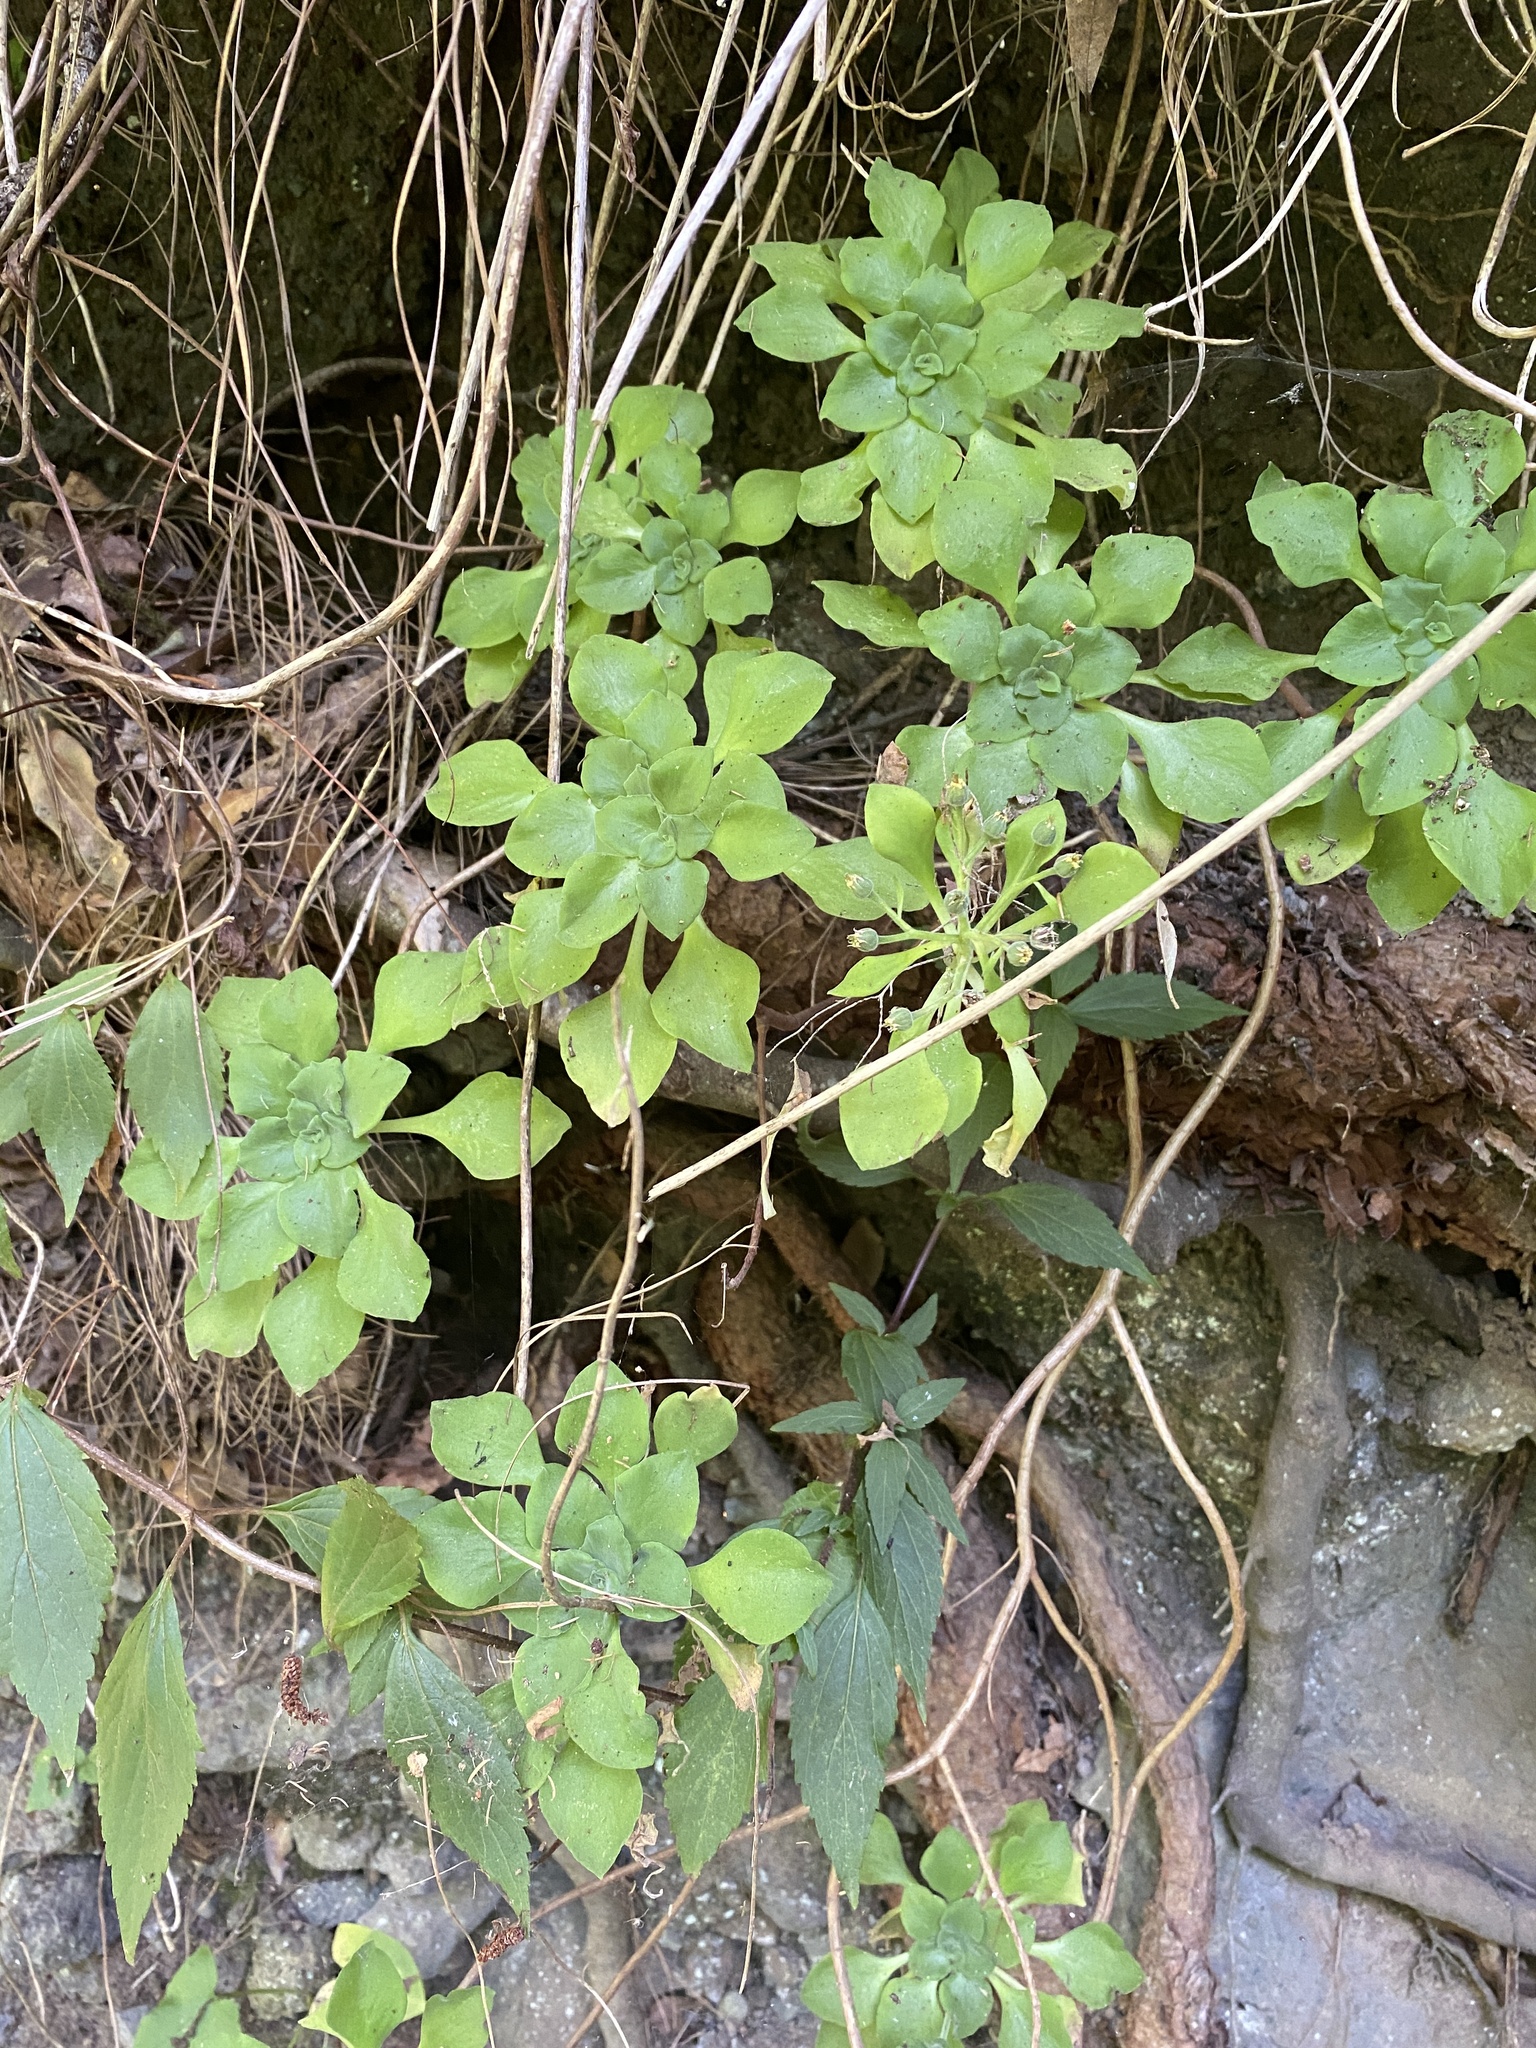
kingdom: Plantae
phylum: Tracheophyta
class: Magnoliopsida
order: Saxifragales
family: Crassulaceae
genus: Aeonium
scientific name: Aeonium goochiae
